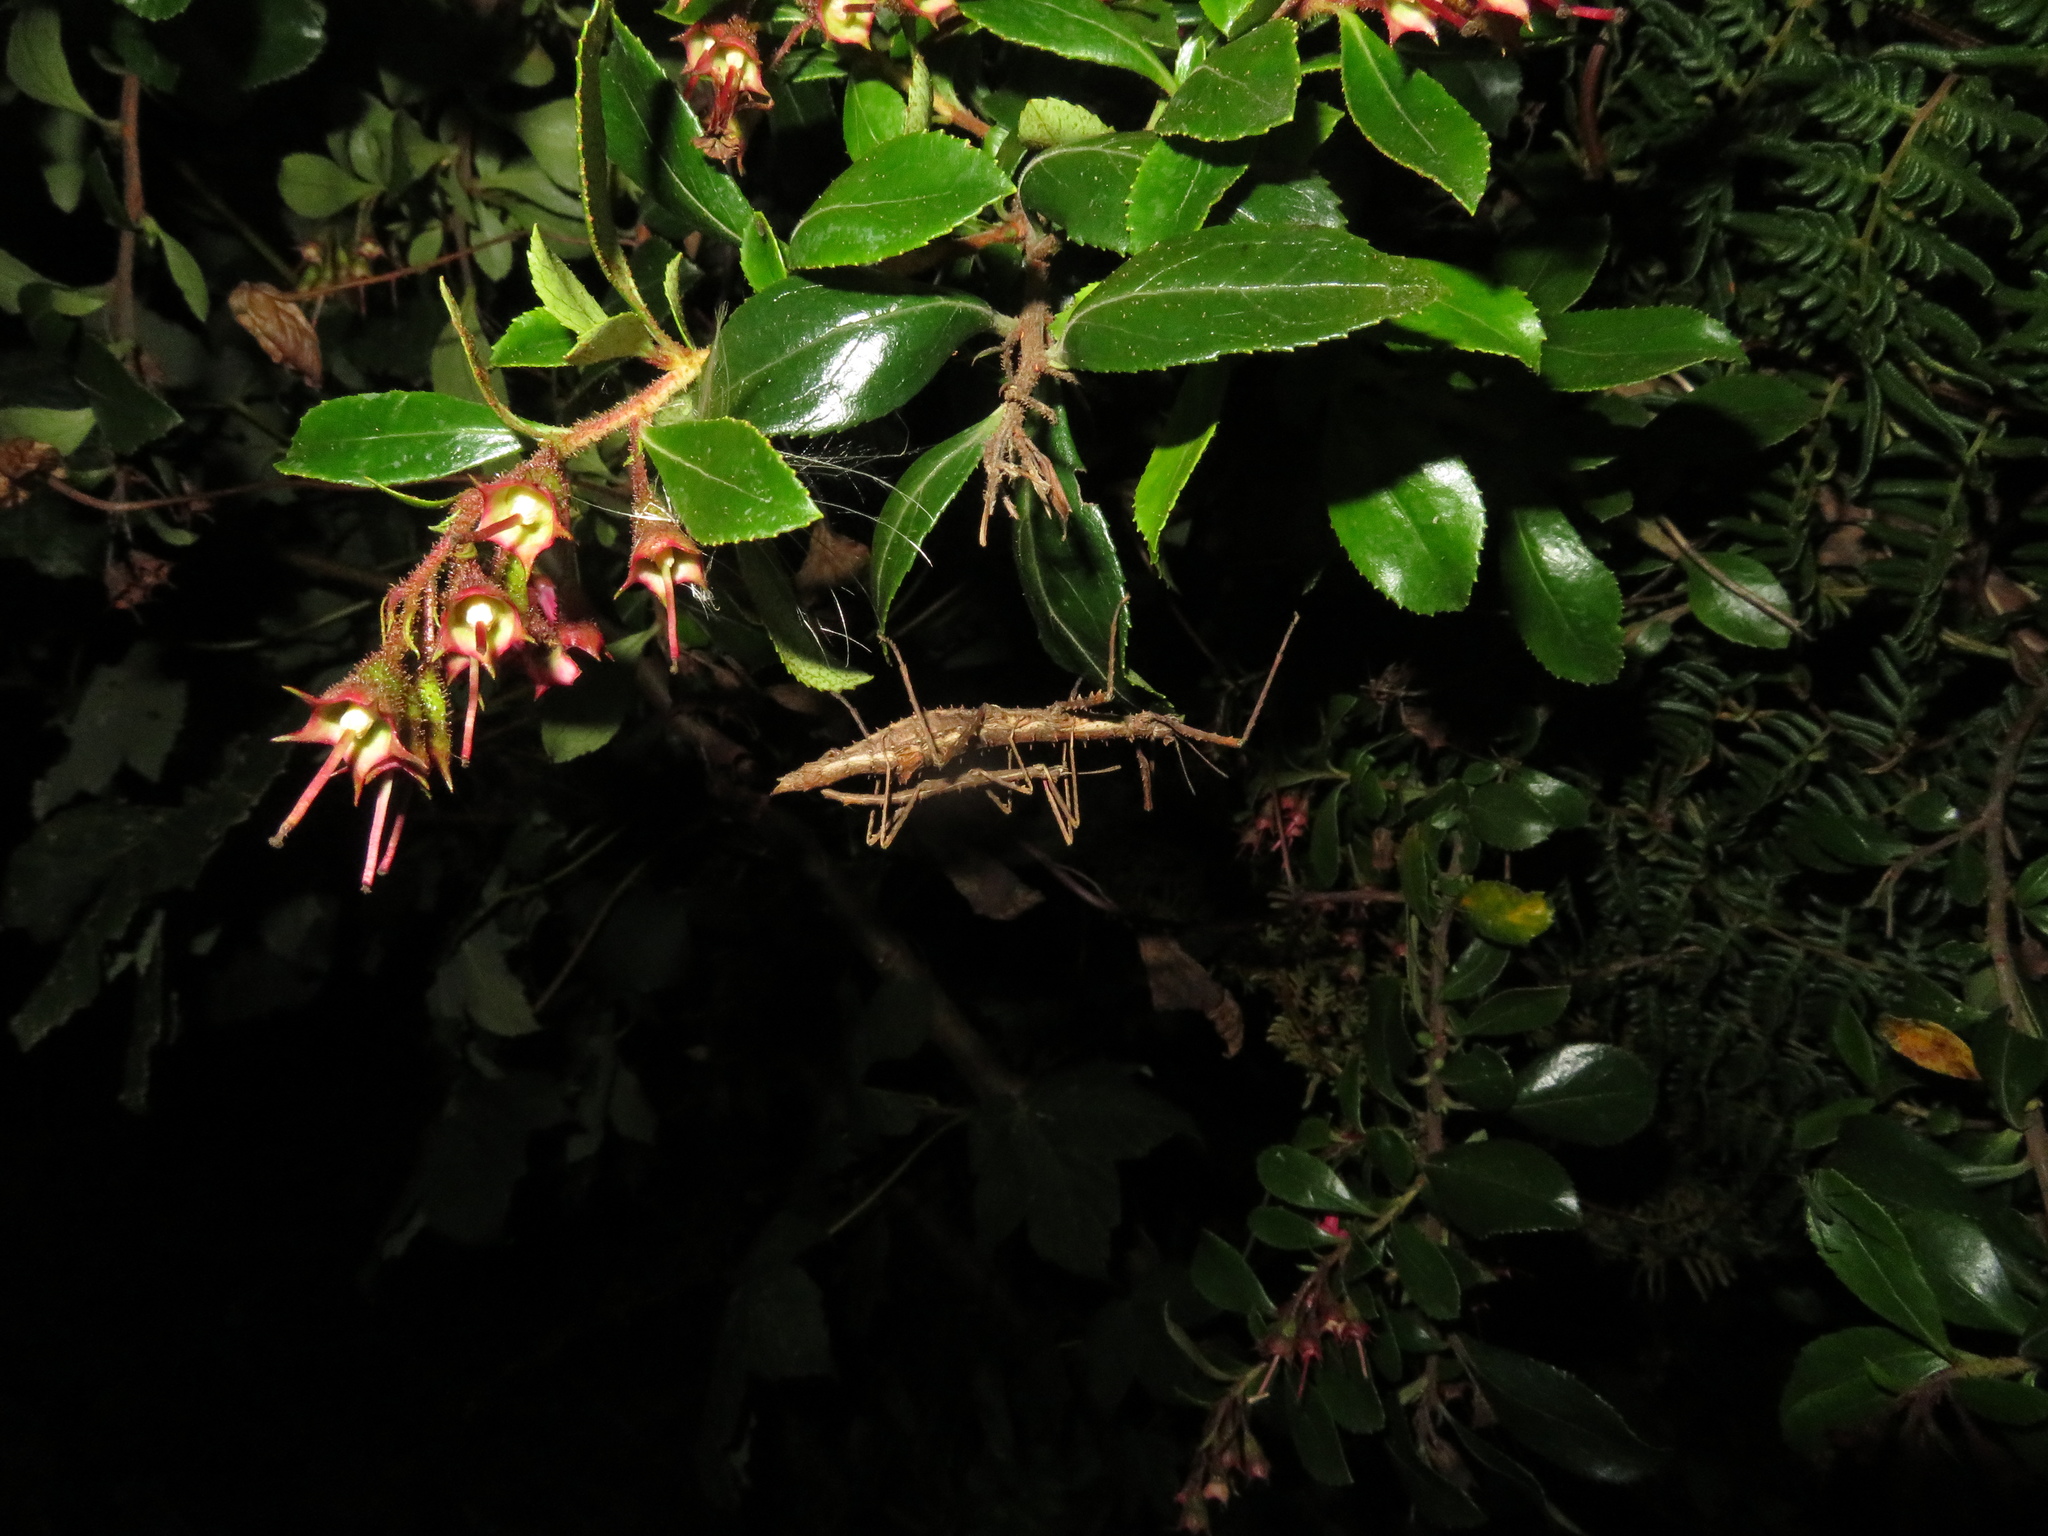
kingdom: Animalia
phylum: Arthropoda
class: Insecta
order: Phasmida
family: Phasmatidae
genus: Micrarchus
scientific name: Micrarchus hystriculeus
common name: The lesser spiny stick insect
